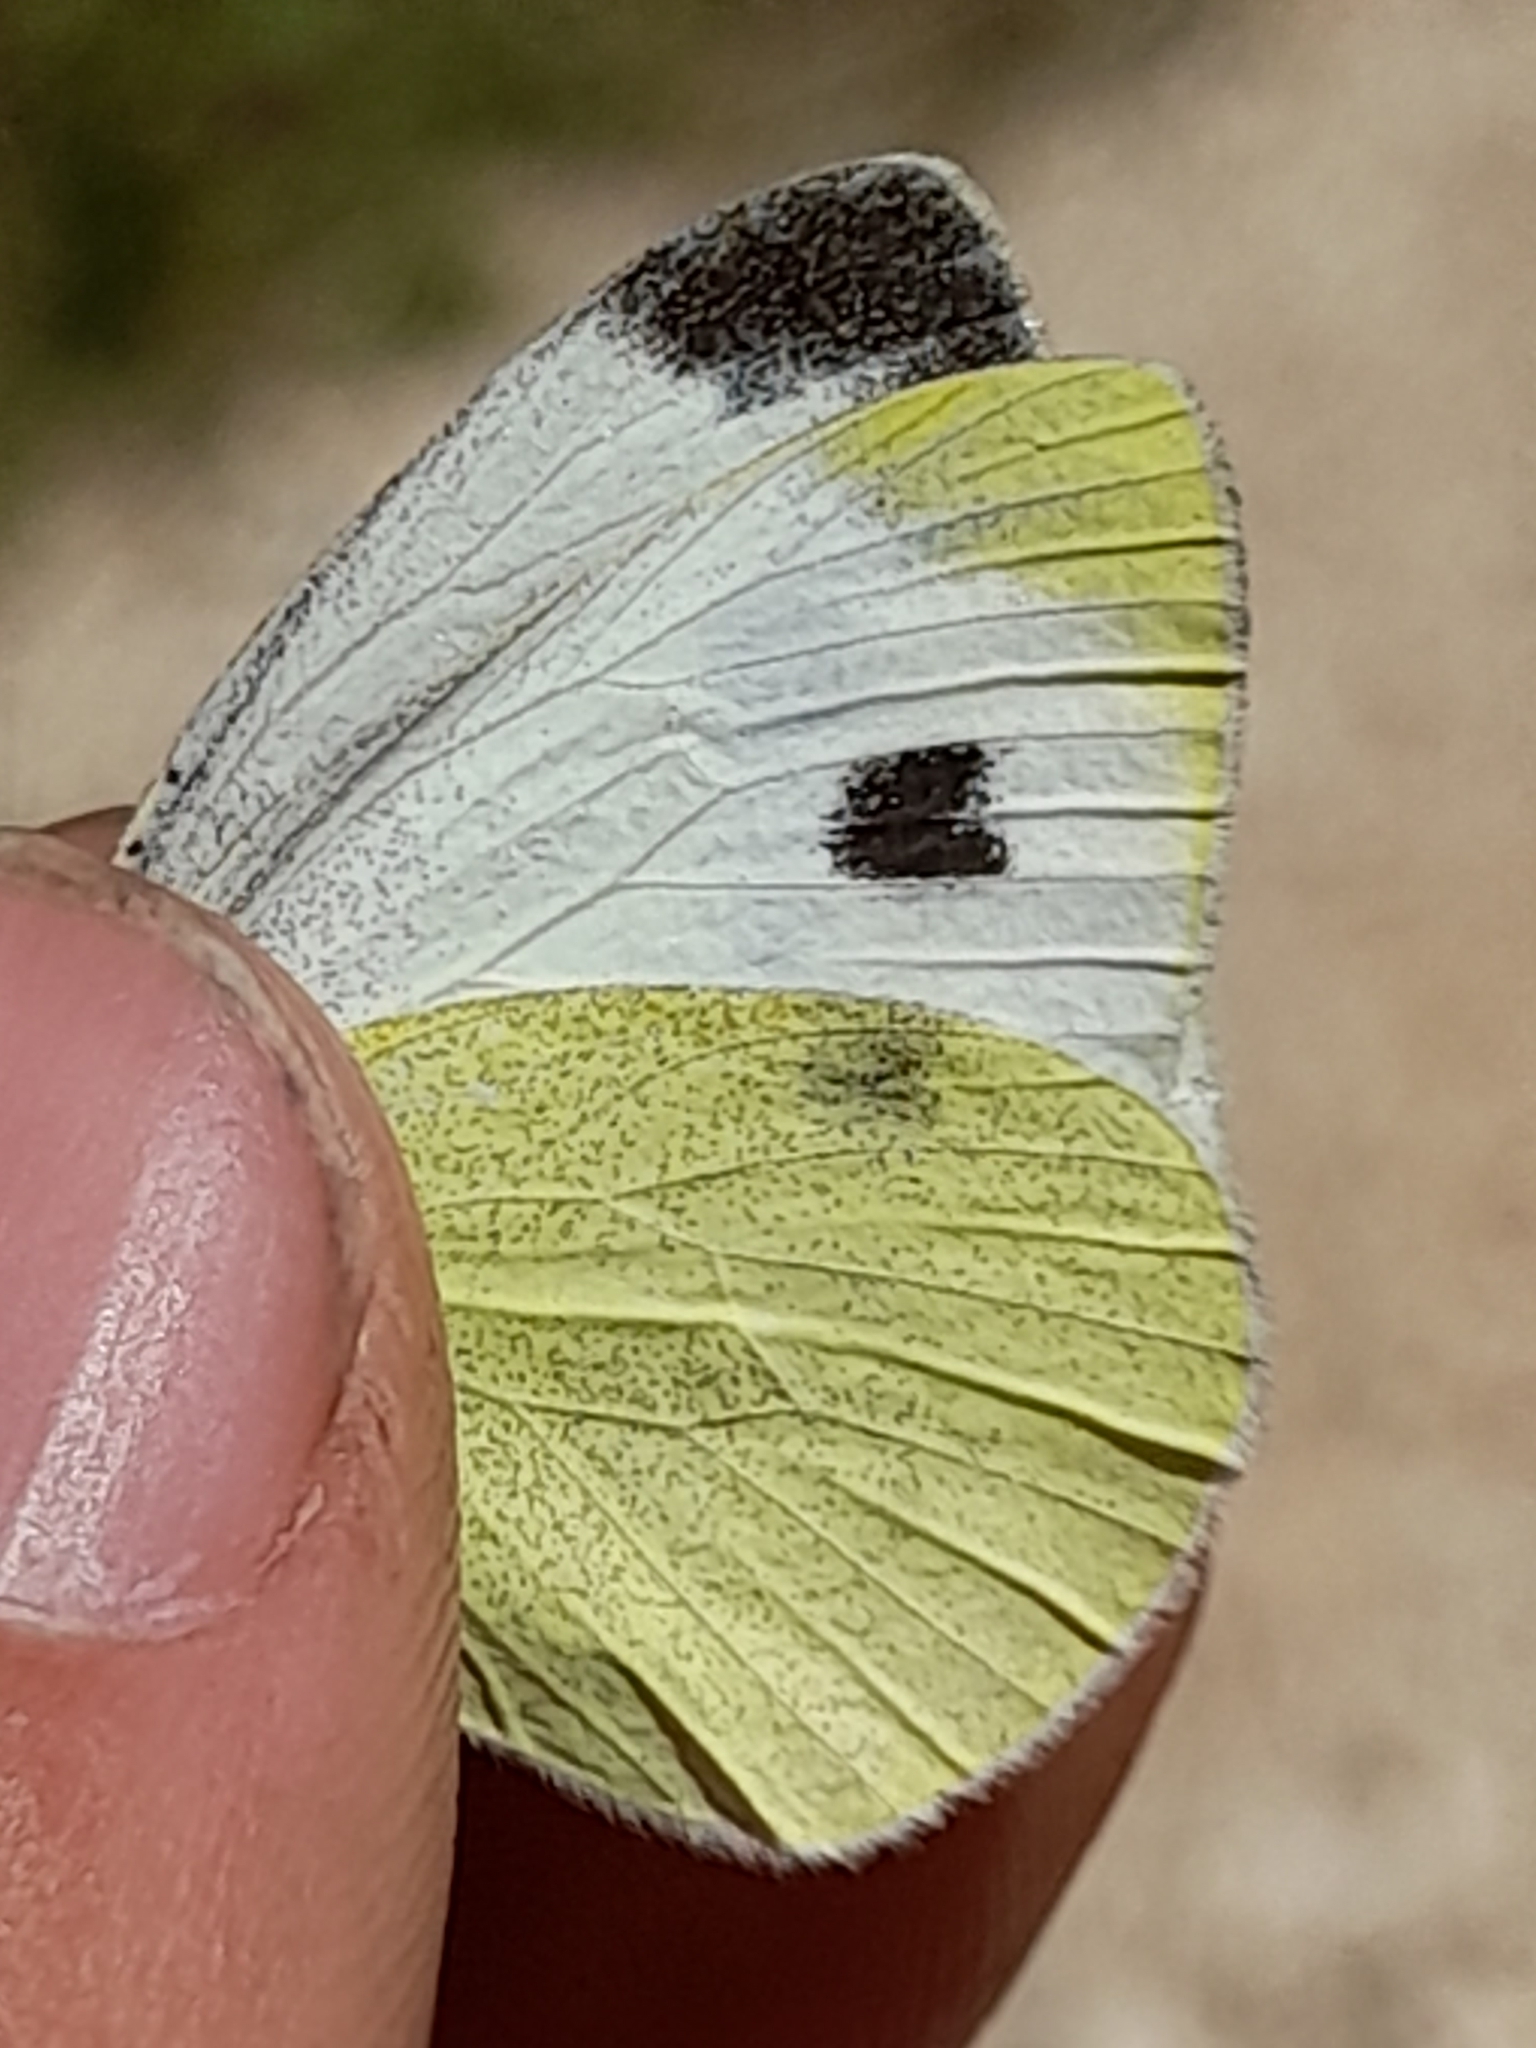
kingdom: Animalia
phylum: Arthropoda
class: Insecta
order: Lepidoptera
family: Pieridae
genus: Pieris
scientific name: Pieris mannii
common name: Southern small white
